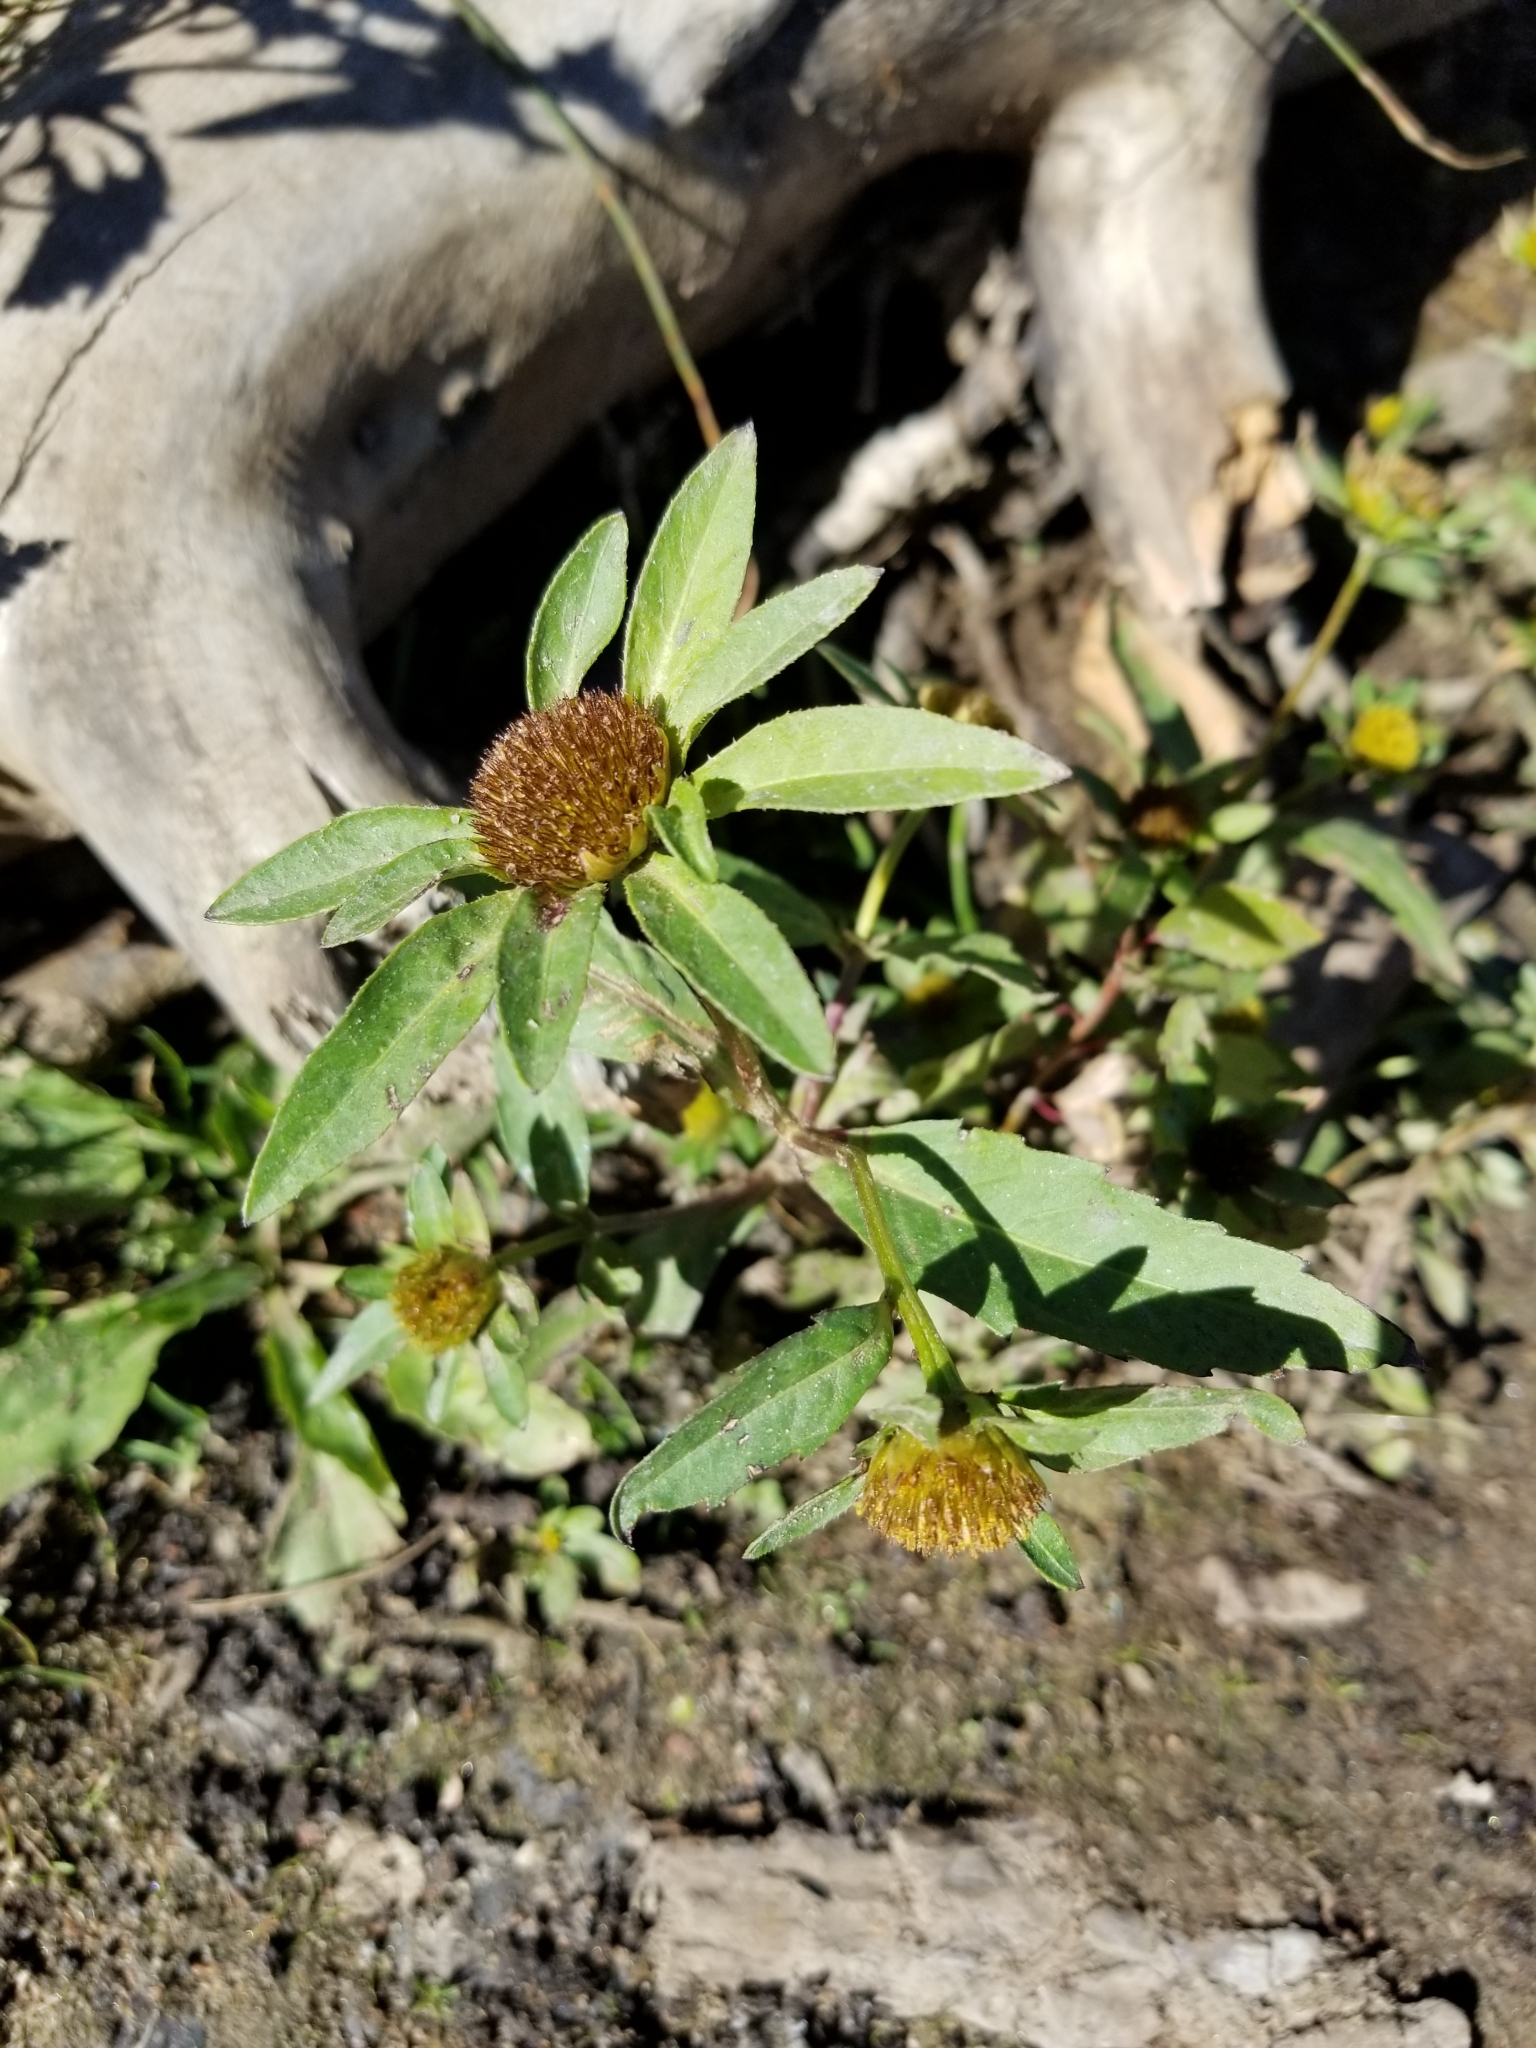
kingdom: Plantae
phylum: Tracheophyta
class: Magnoliopsida
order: Asterales
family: Asteraceae
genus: Bidens
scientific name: Bidens tripartita
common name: Trifid bur-marigold
